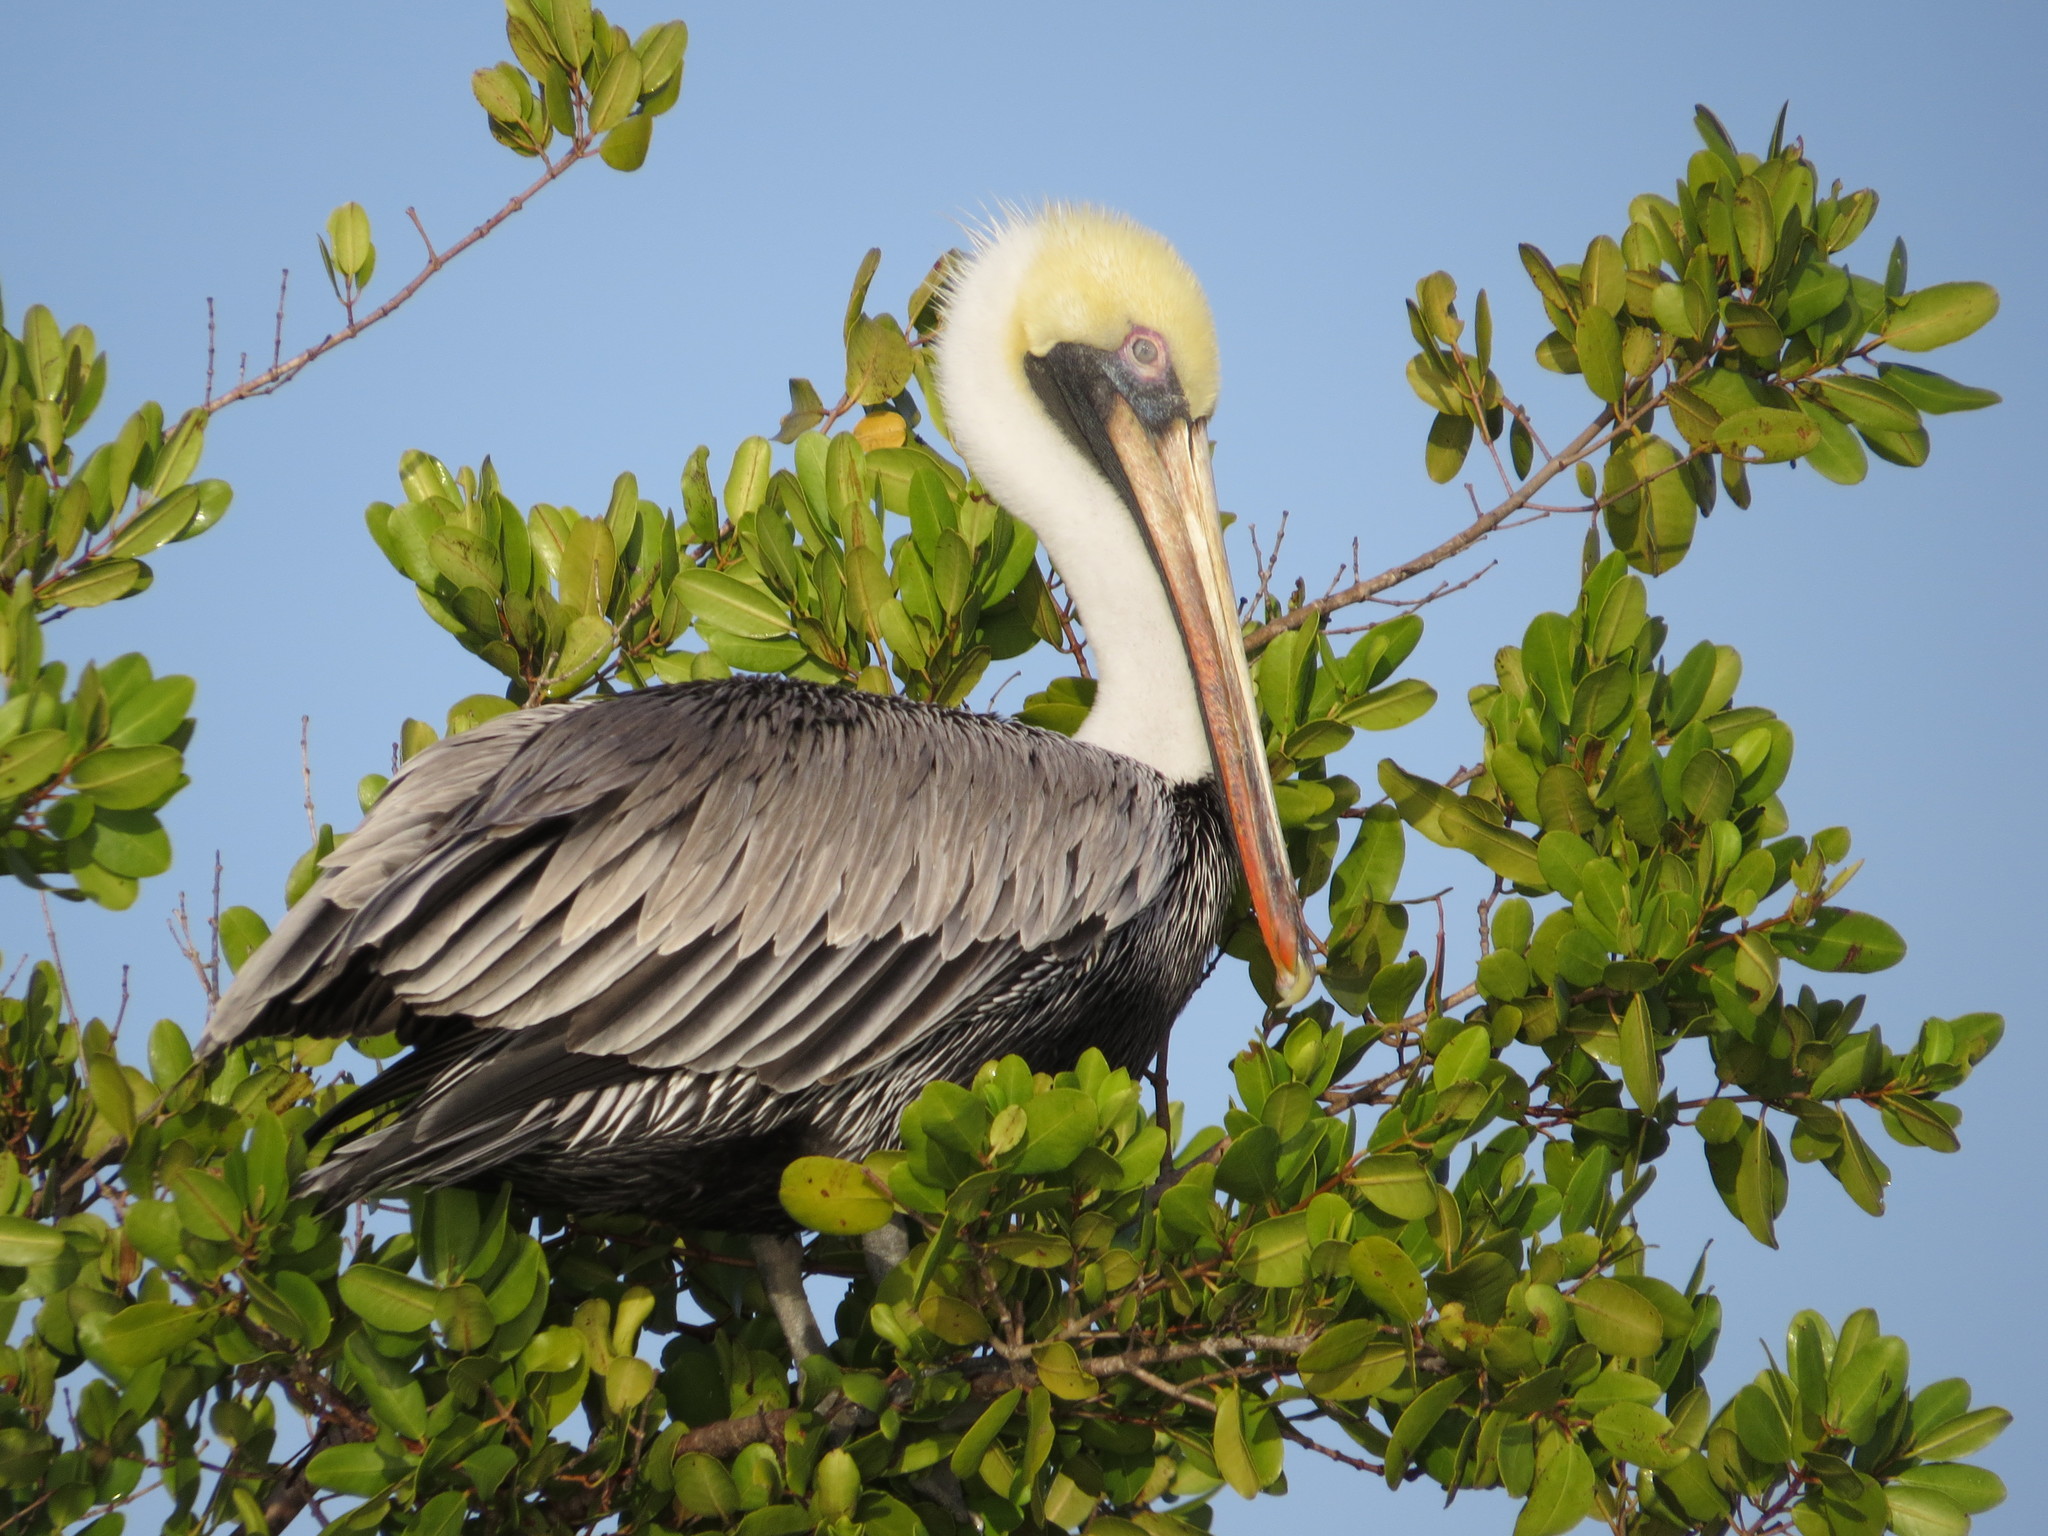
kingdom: Animalia
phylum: Chordata
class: Aves
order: Pelecaniformes
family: Pelecanidae
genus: Pelecanus
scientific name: Pelecanus occidentalis
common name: Brown pelican
